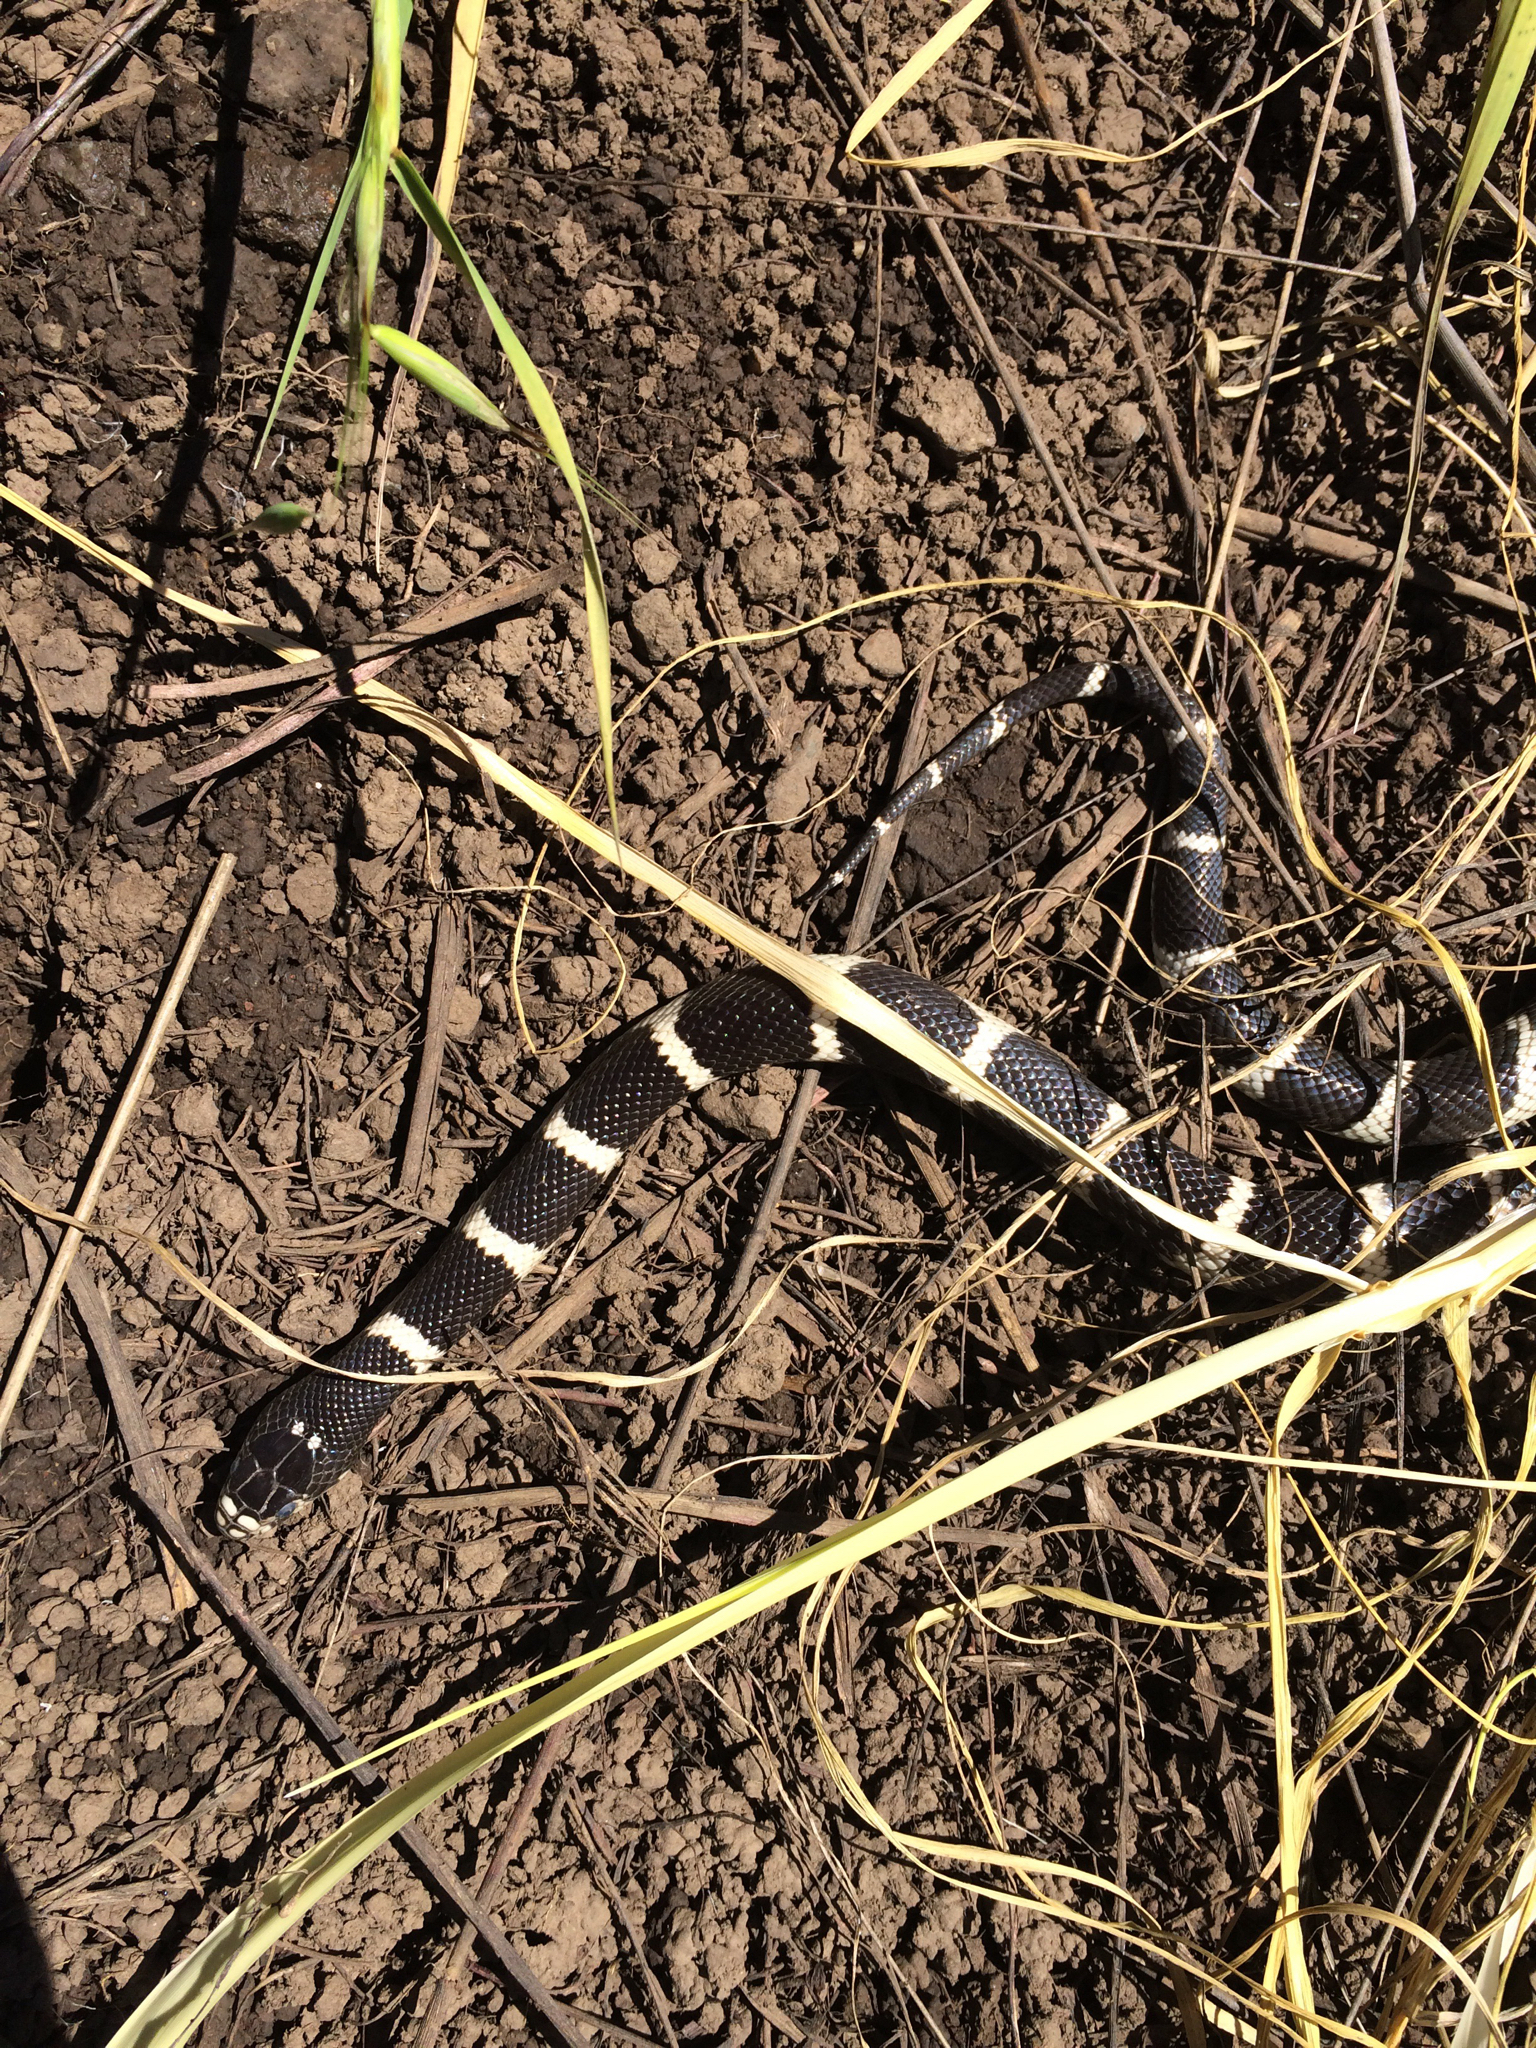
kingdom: Animalia
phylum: Chordata
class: Squamata
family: Colubridae
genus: Lampropeltis
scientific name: Lampropeltis californiae
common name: California kingsnake
